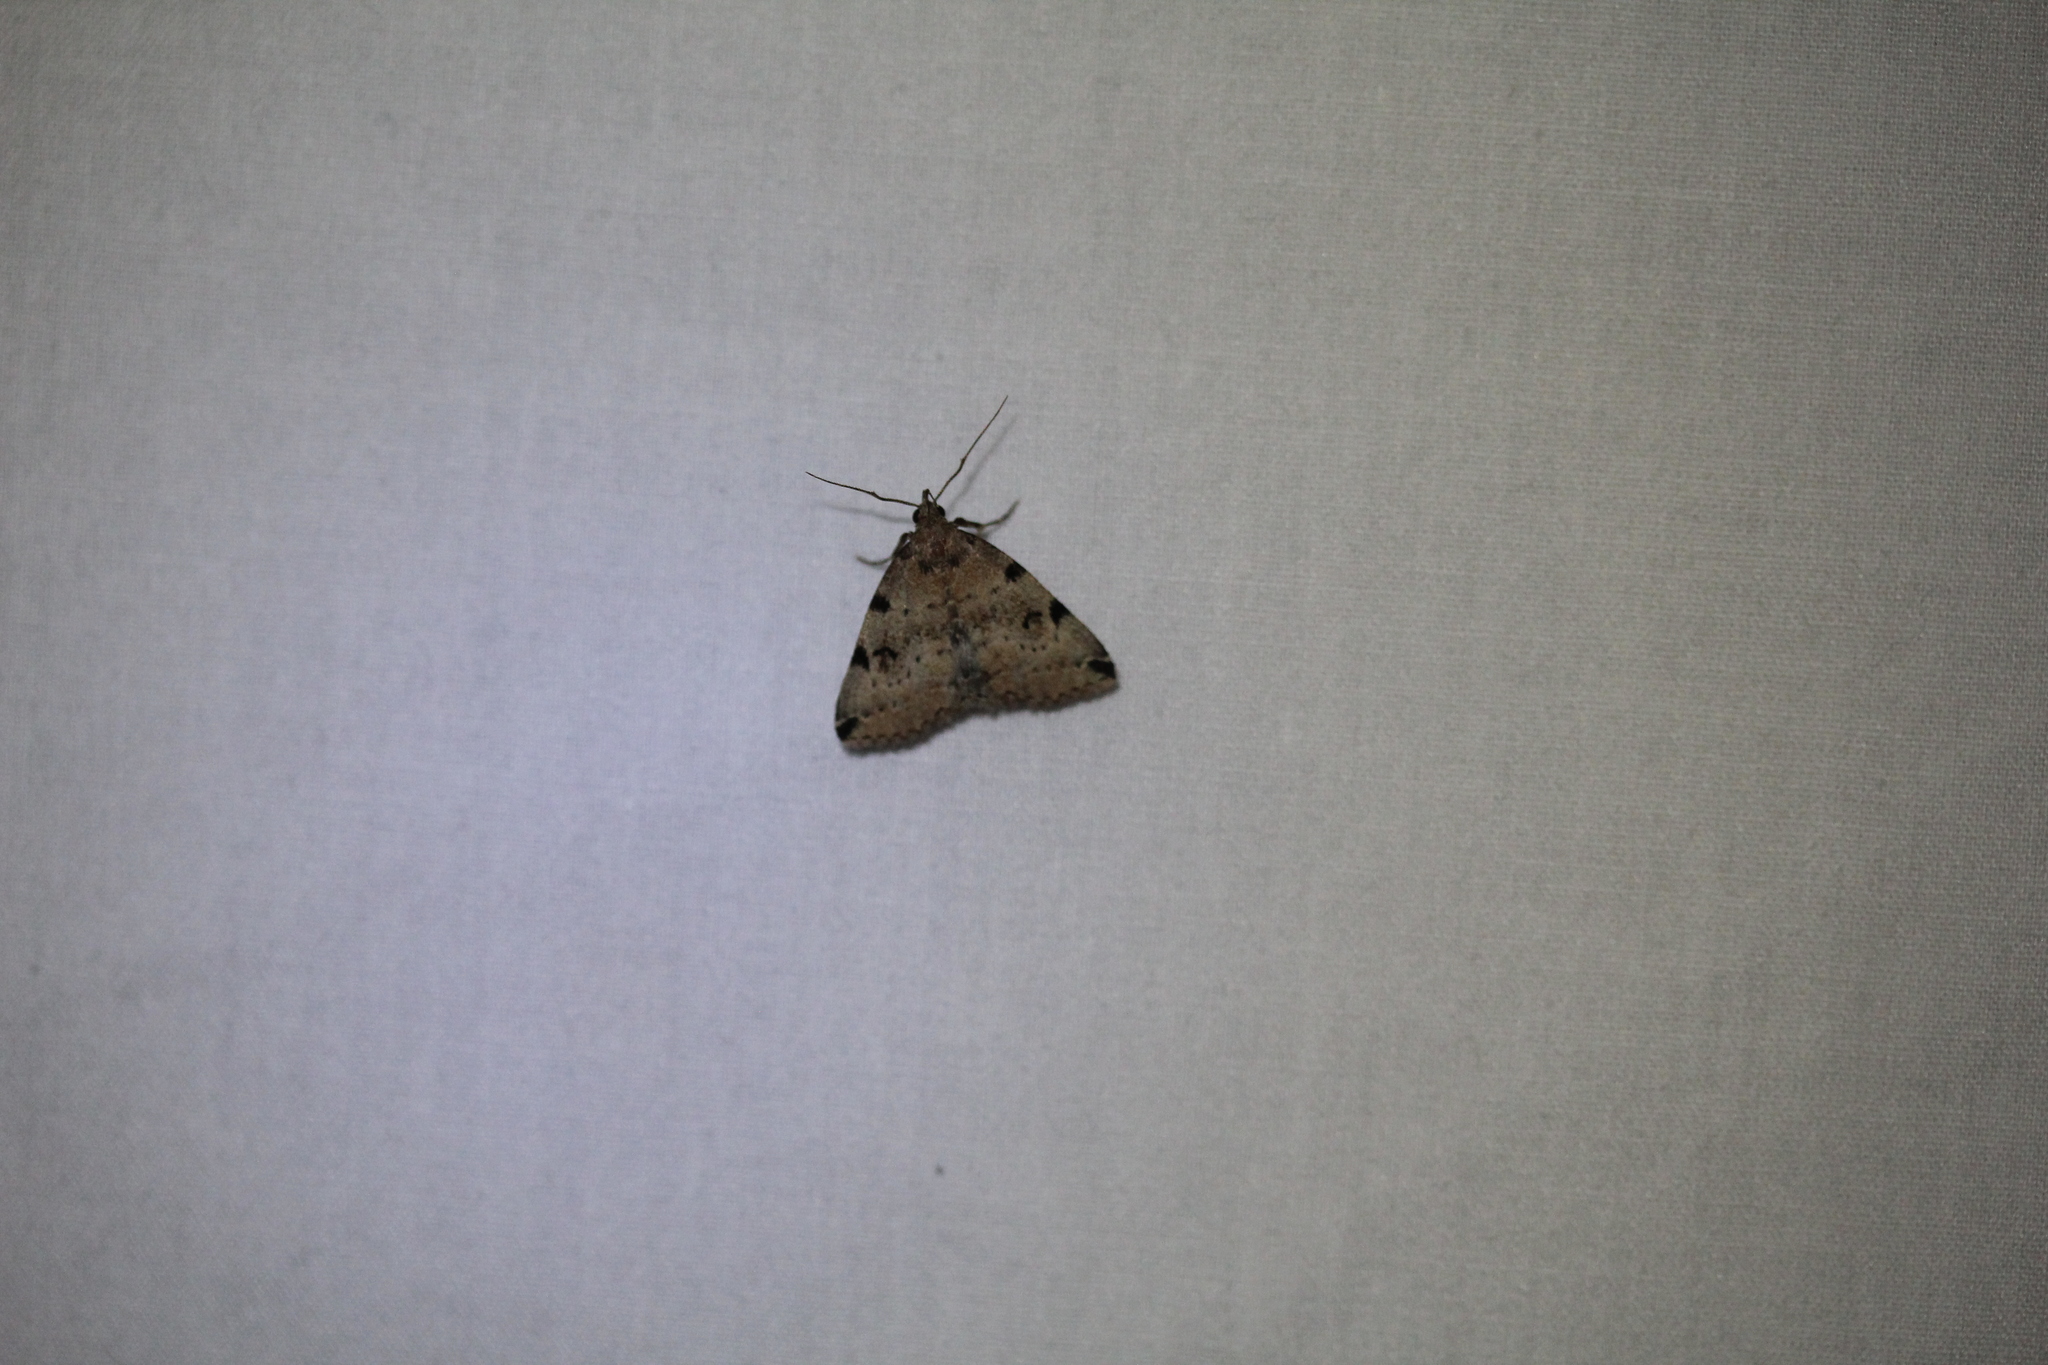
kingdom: Animalia
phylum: Arthropoda
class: Insecta
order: Lepidoptera
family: Erebidae
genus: Zanclognatha
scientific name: Zanclognatha lituralis
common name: Lettered fan-foot
